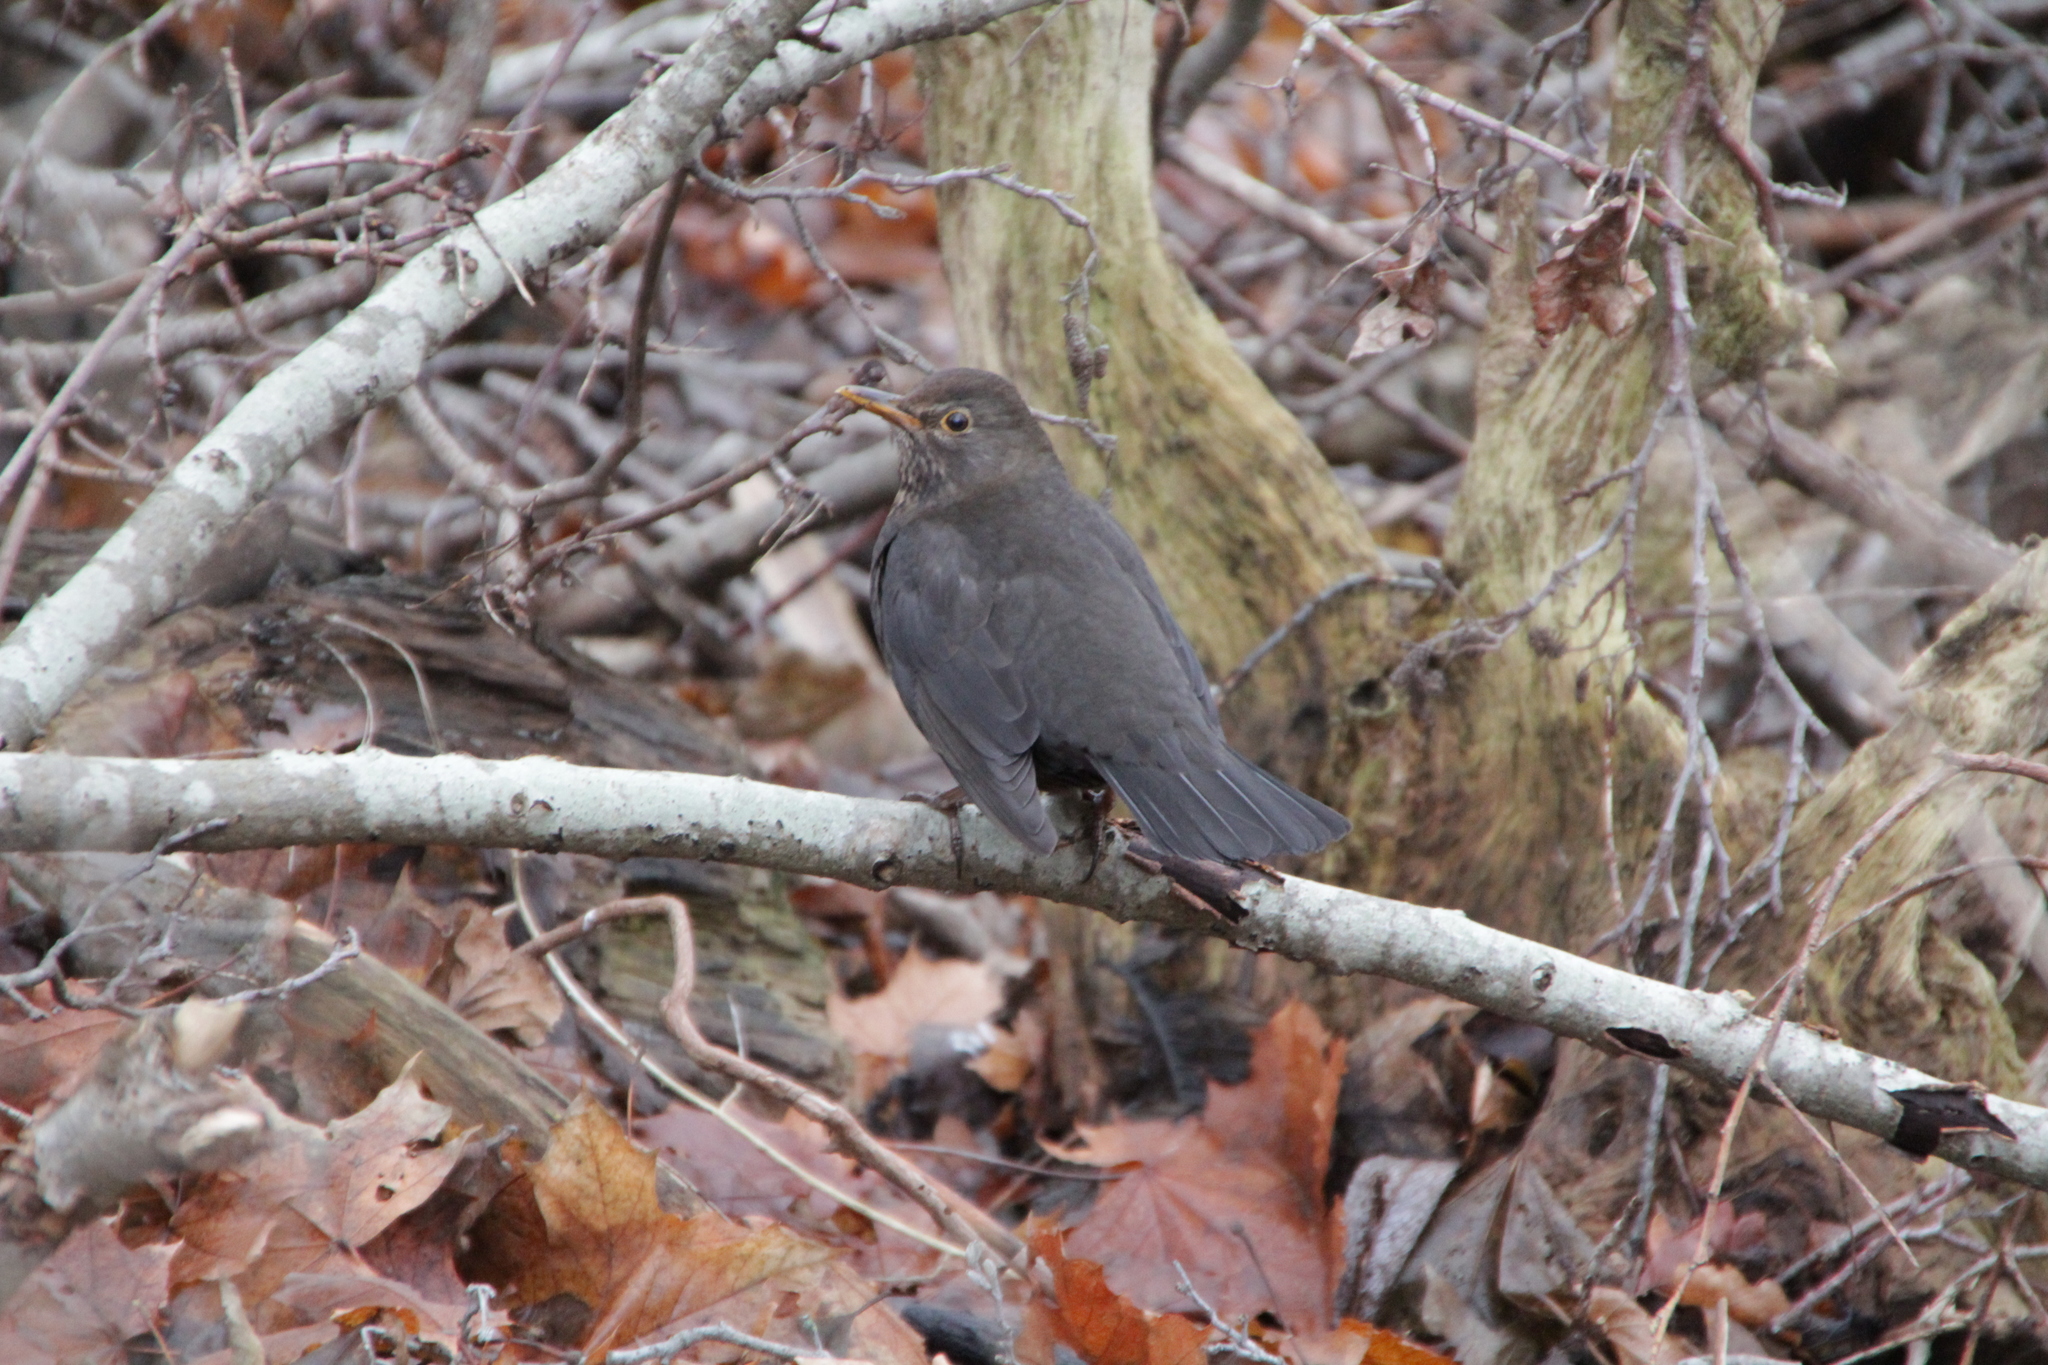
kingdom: Animalia
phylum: Chordata
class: Aves
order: Passeriformes
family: Turdidae
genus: Turdus
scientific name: Turdus merula
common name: Common blackbird
